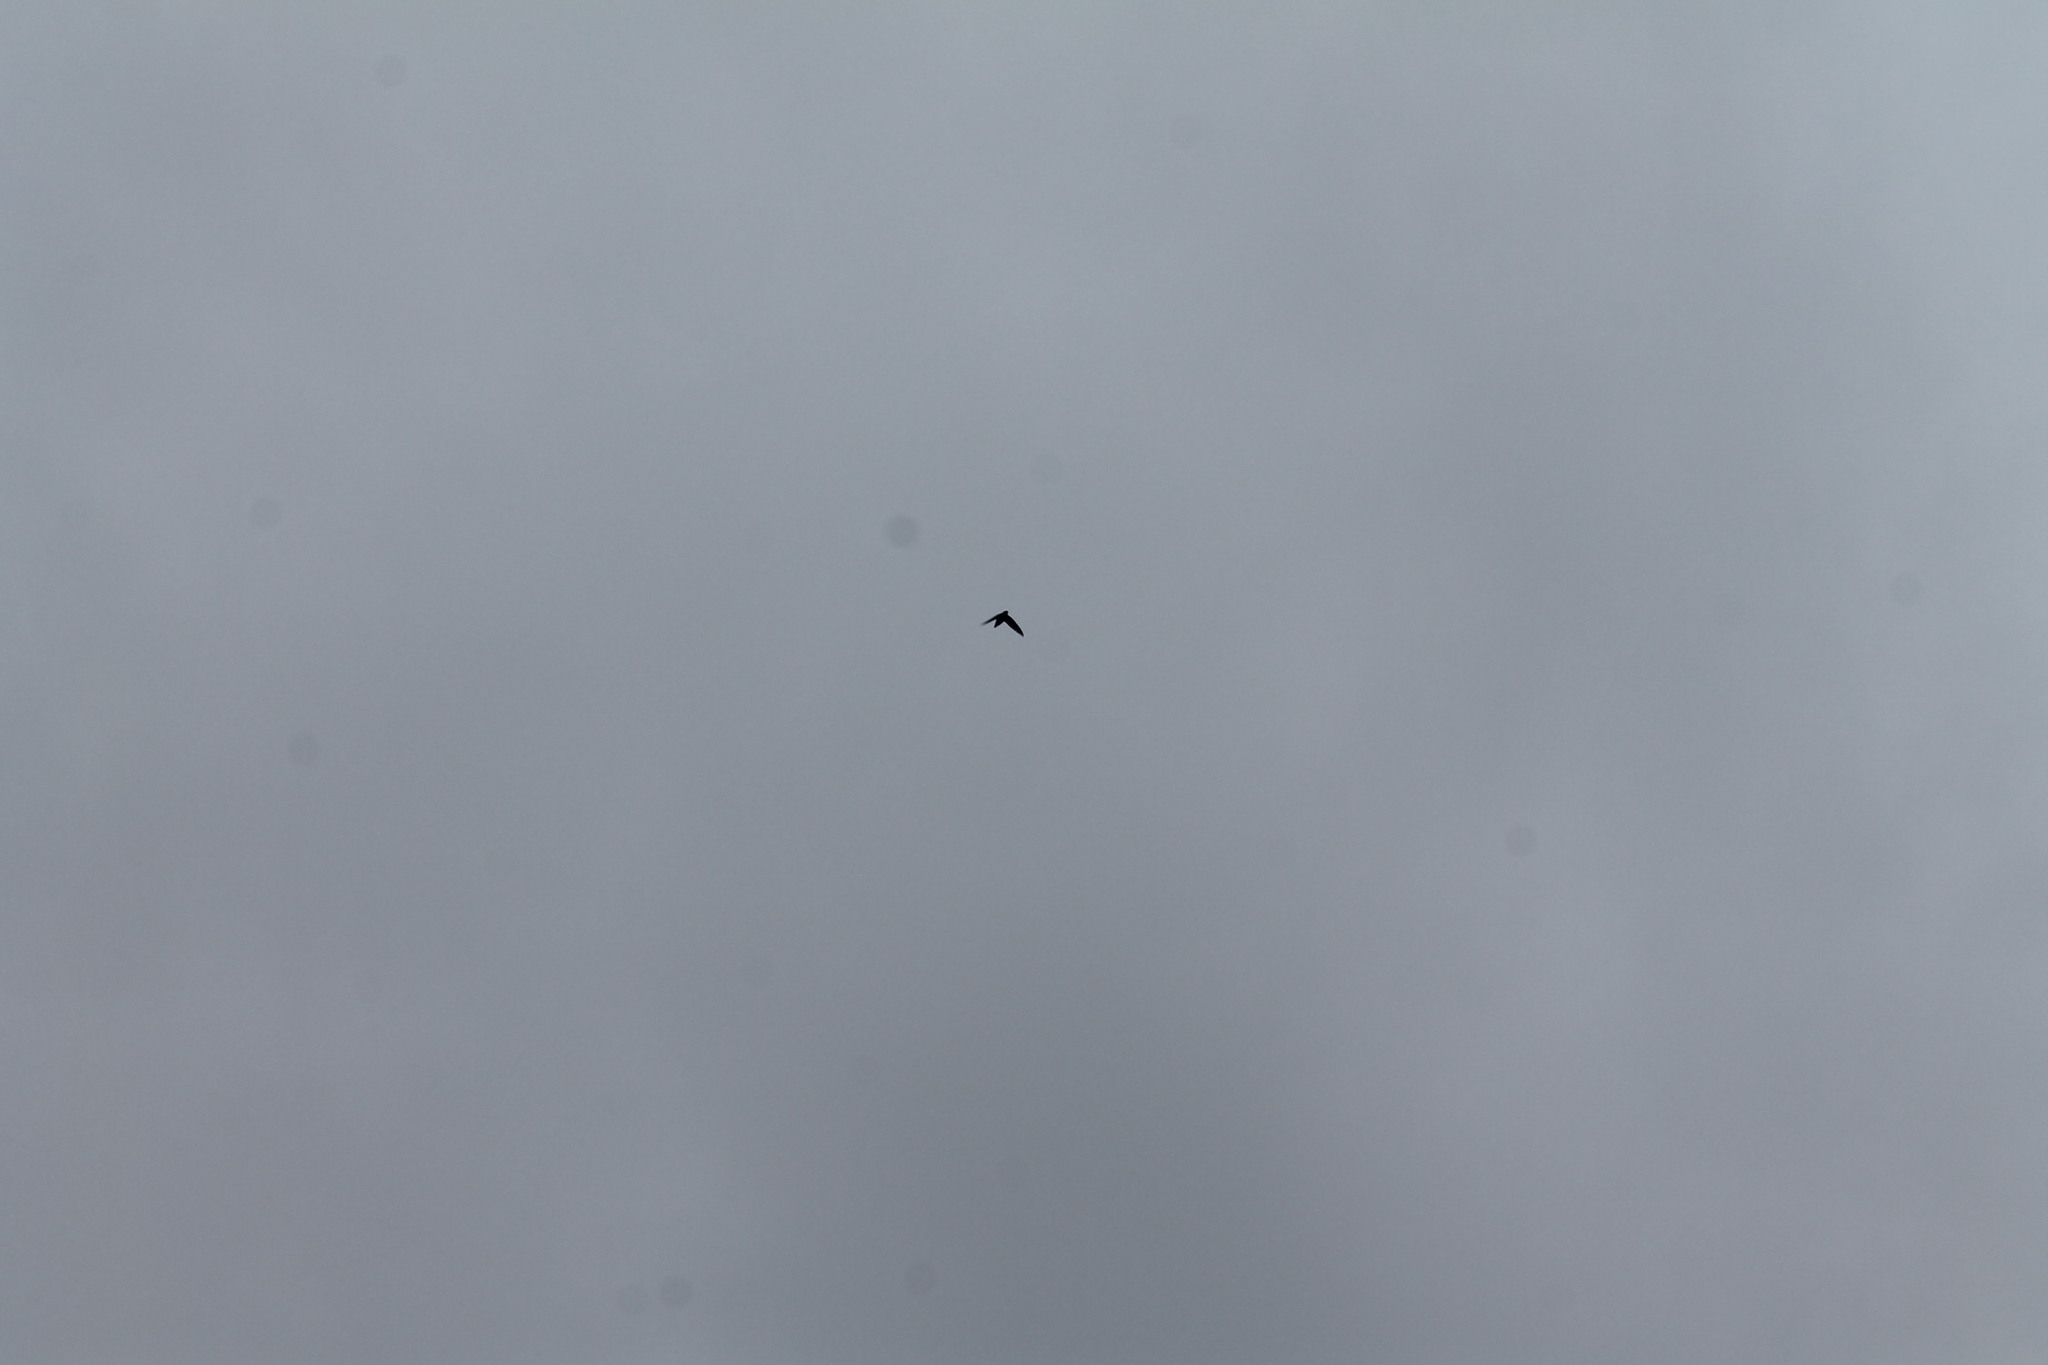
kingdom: Animalia
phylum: Chordata
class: Aves
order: Apodiformes
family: Apodidae
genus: Chaetura
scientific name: Chaetura pelagica
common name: Chimney swift
